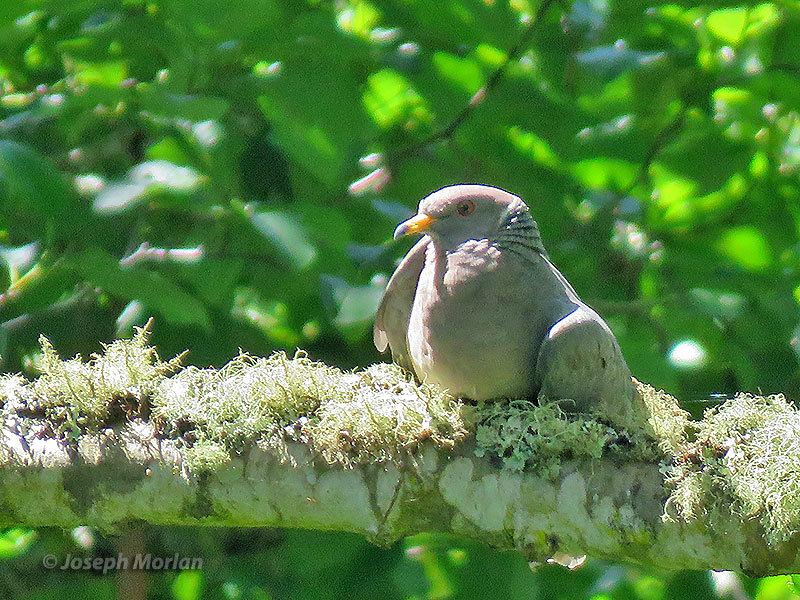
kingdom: Animalia
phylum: Chordata
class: Aves
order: Columbiformes
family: Columbidae
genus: Patagioenas
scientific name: Patagioenas fasciata
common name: Band-tailed pigeon
